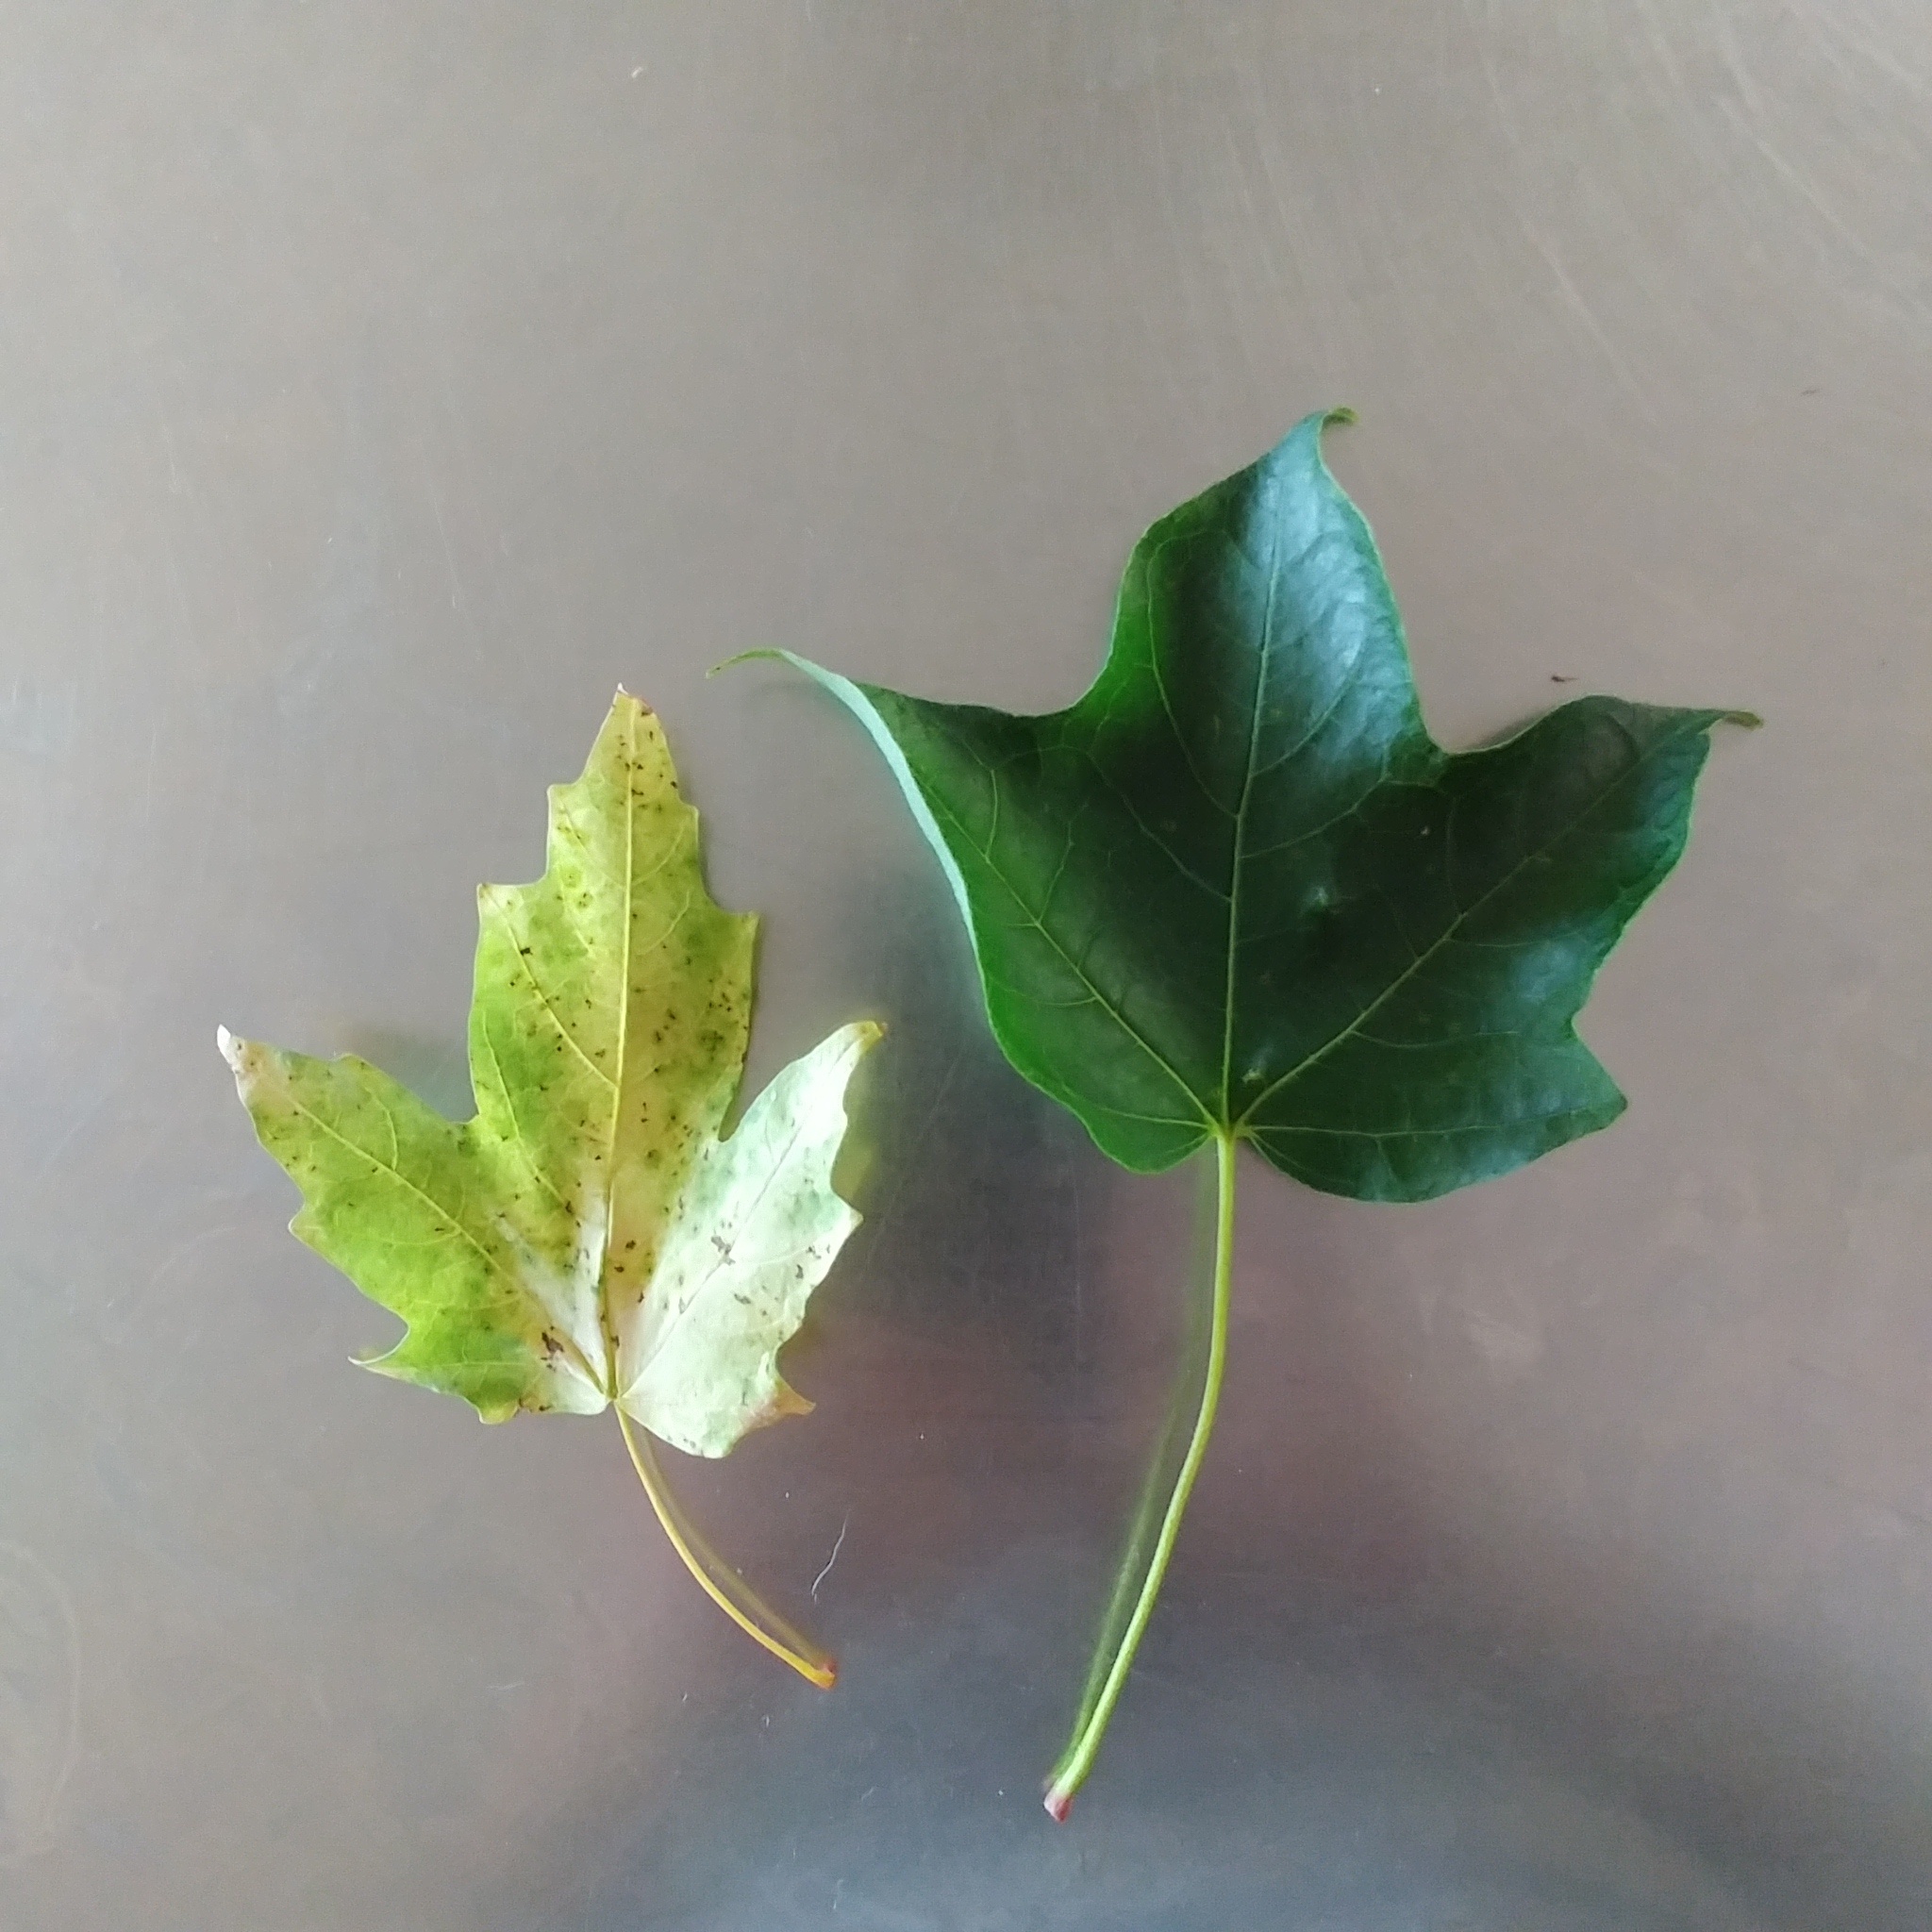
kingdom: Plantae
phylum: Tracheophyta
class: Magnoliopsida
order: Sapindales
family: Sapindaceae
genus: Acer
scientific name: Acer saccharum
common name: Sugar maple
